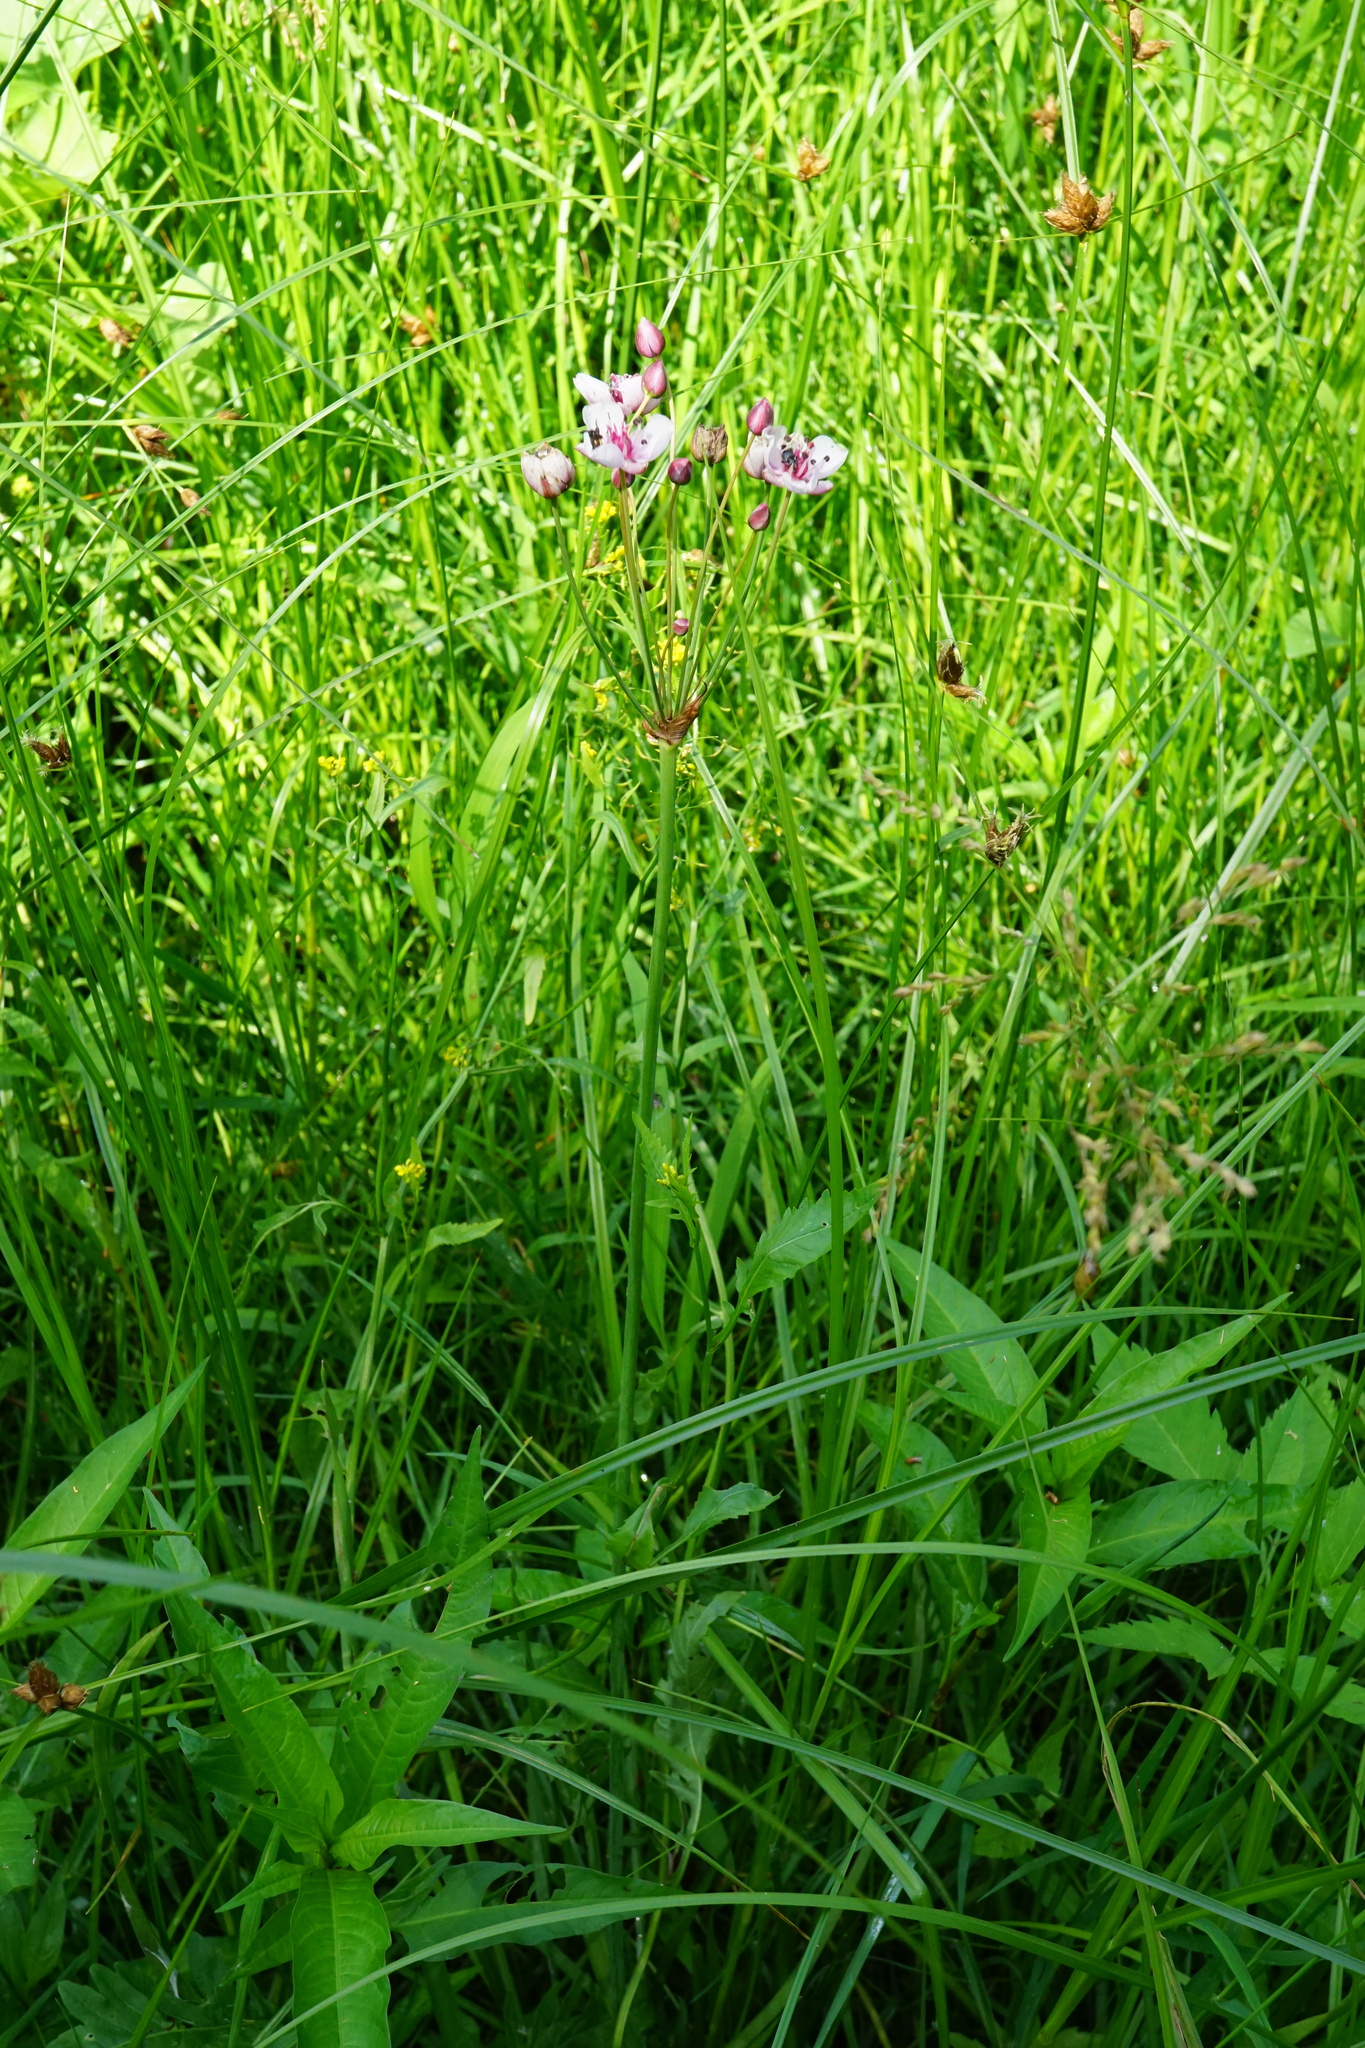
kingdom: Plantae
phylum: Tracheophyta
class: Liliopsida
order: Alismatales
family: Butomaceae
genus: Butomus
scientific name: Butomus umbellatus
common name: Flowering-rush
